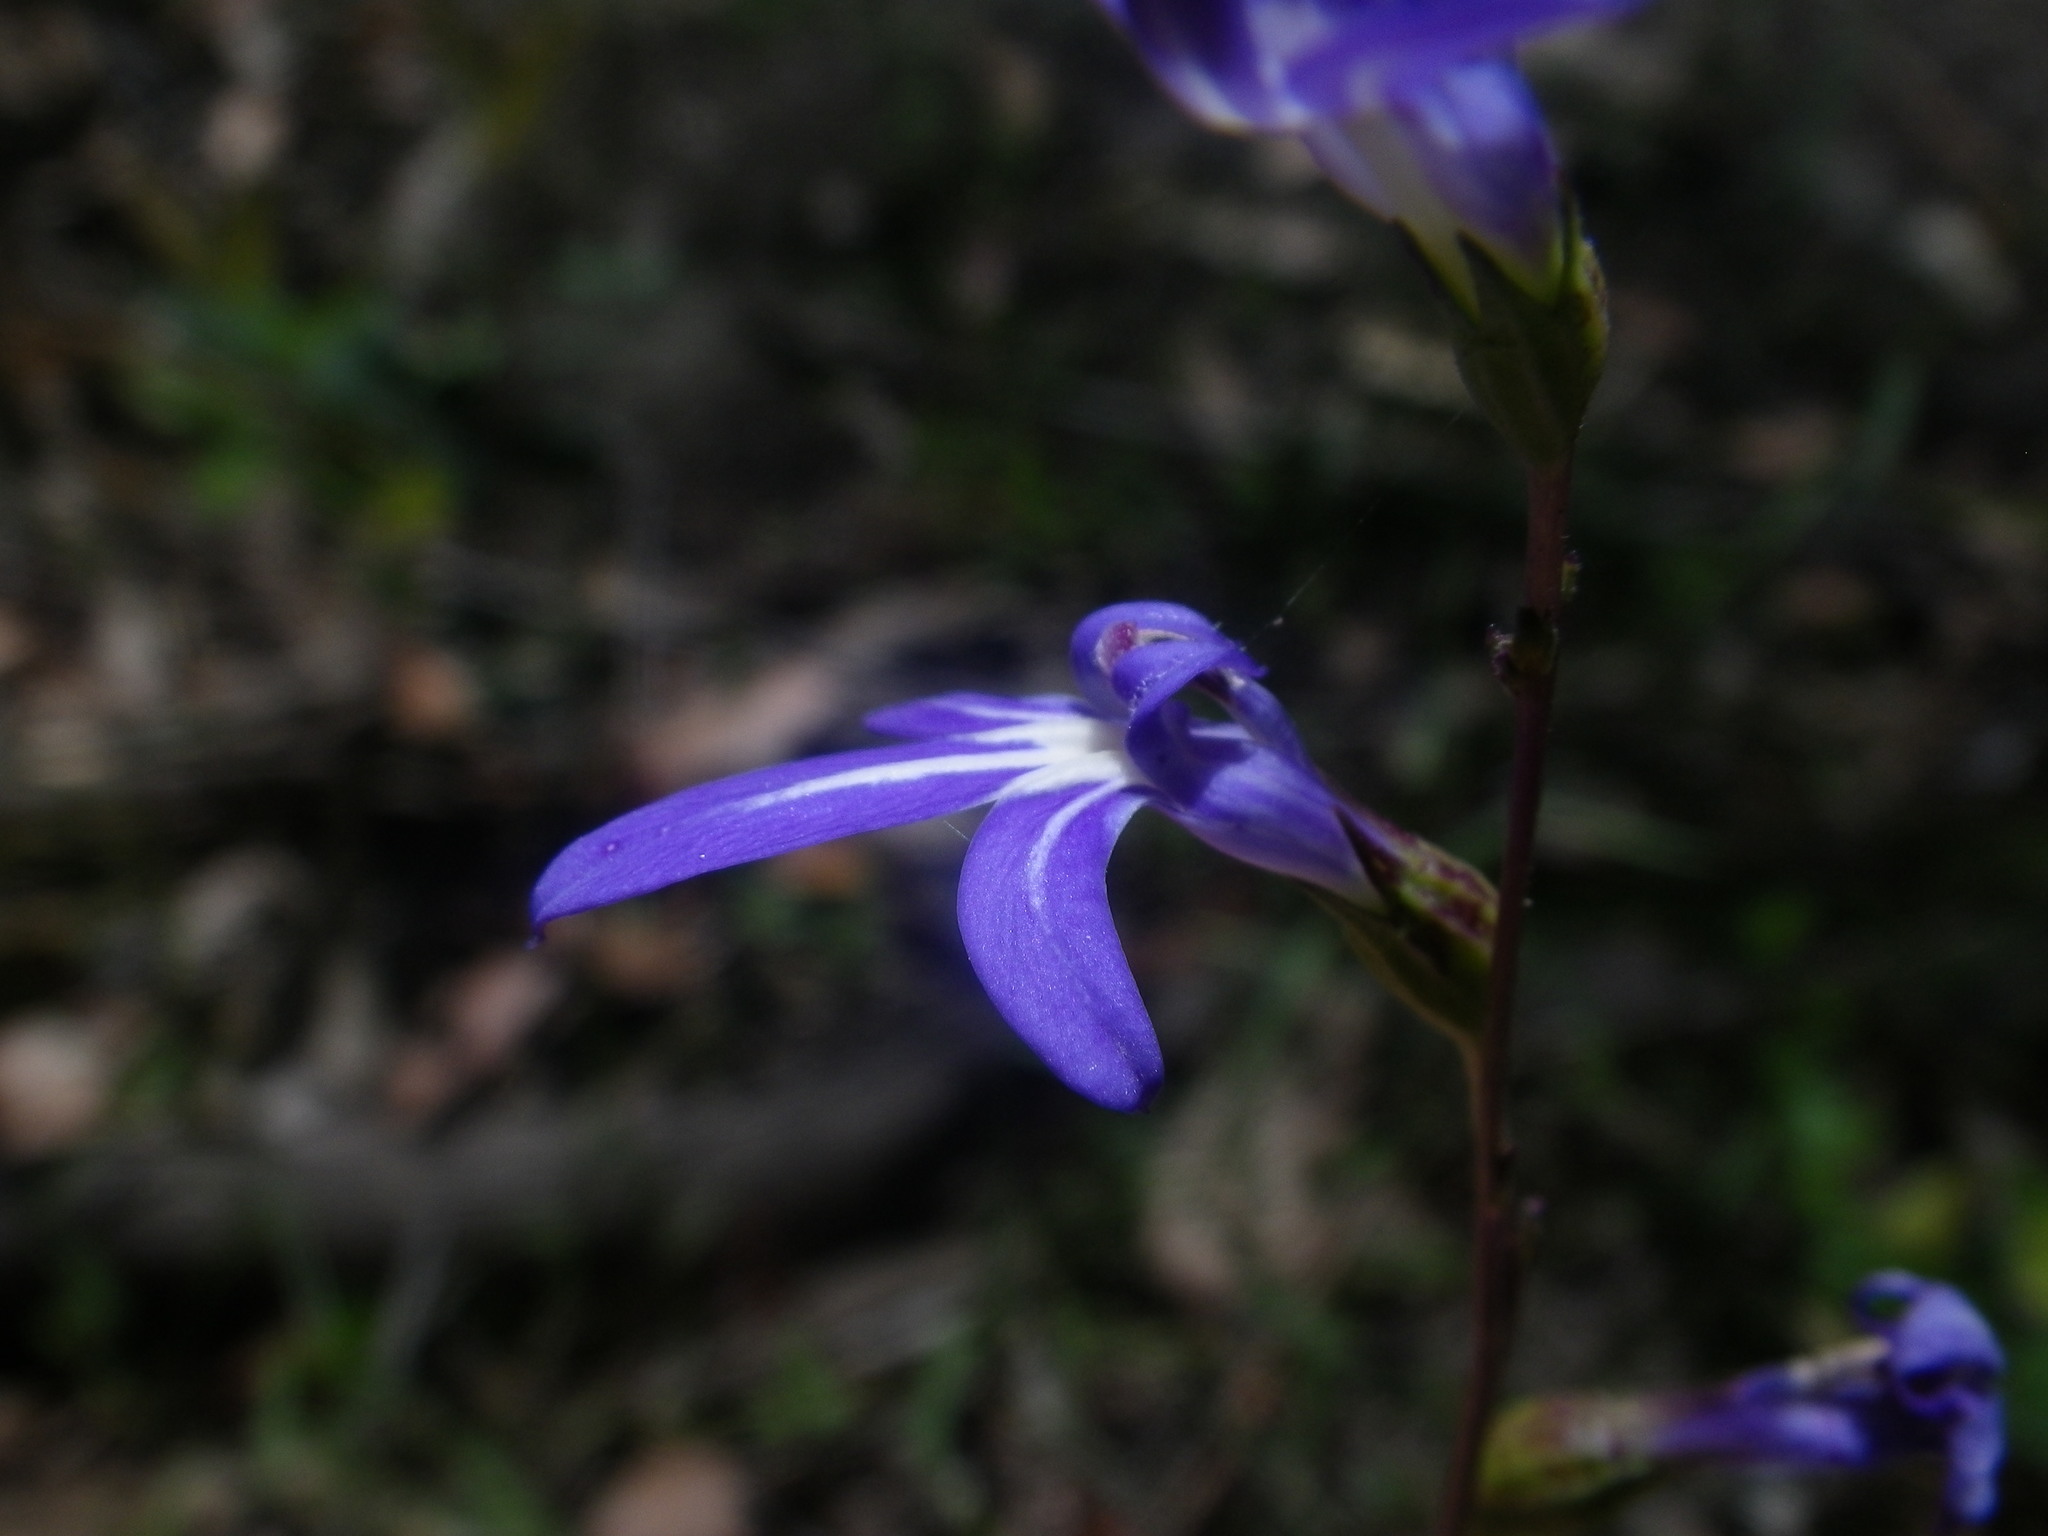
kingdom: Plantae
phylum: Tracheophyta
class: Magnoliopsida
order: Asterales
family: Campanulaceae
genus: Lobelia
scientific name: Lobelia gibbosa
